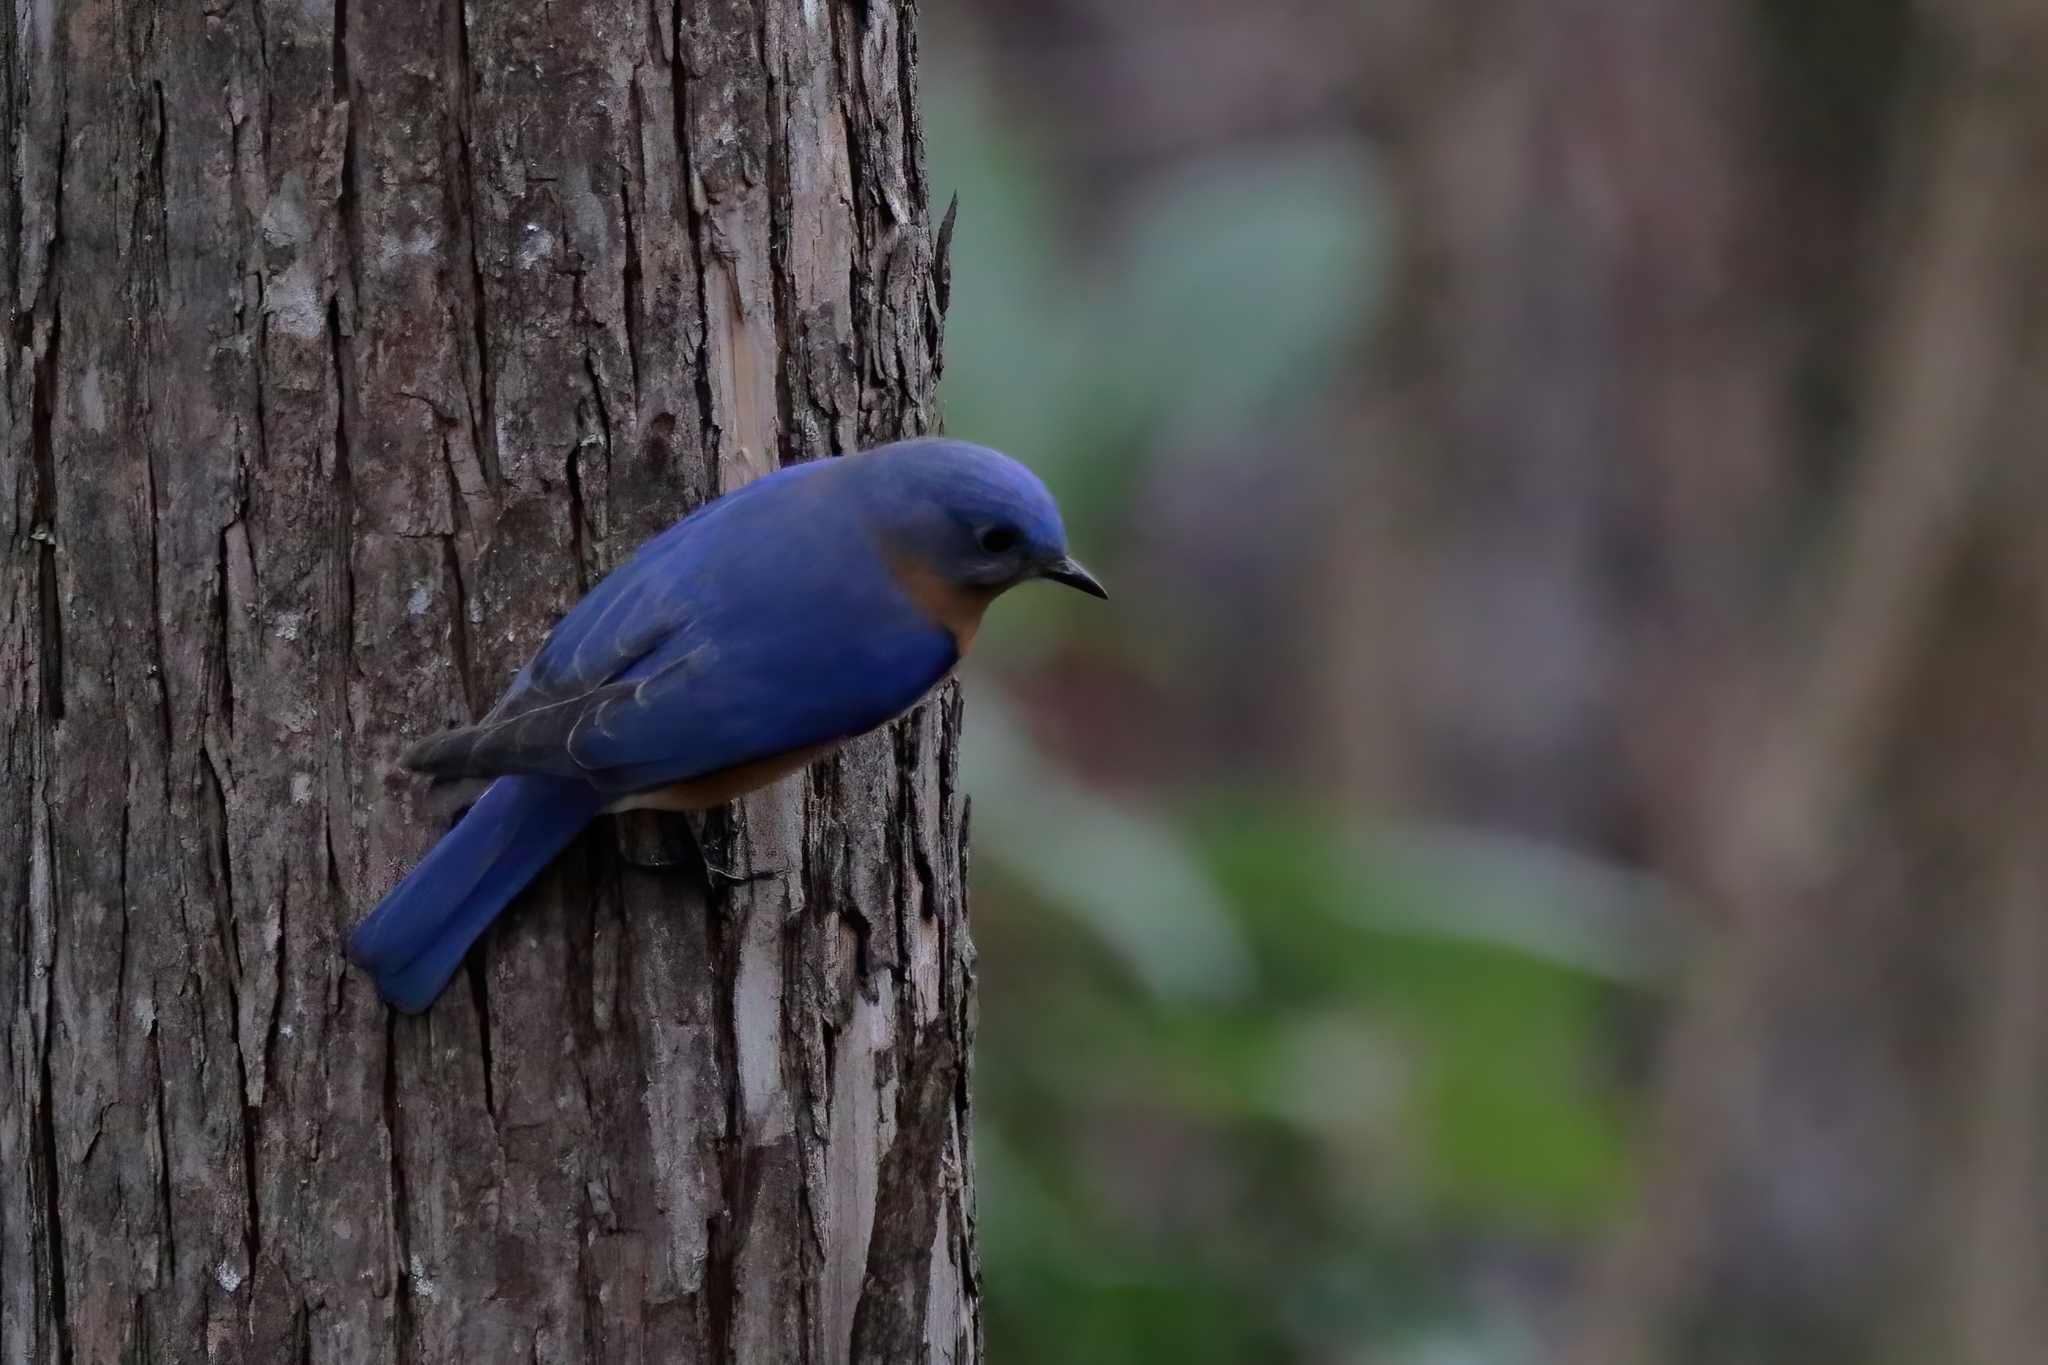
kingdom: Animalia
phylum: Chordata
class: Aves
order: Passeriformes
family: Turdidae
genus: Sialia
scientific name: Sialia sialis
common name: Eastern bluebird
